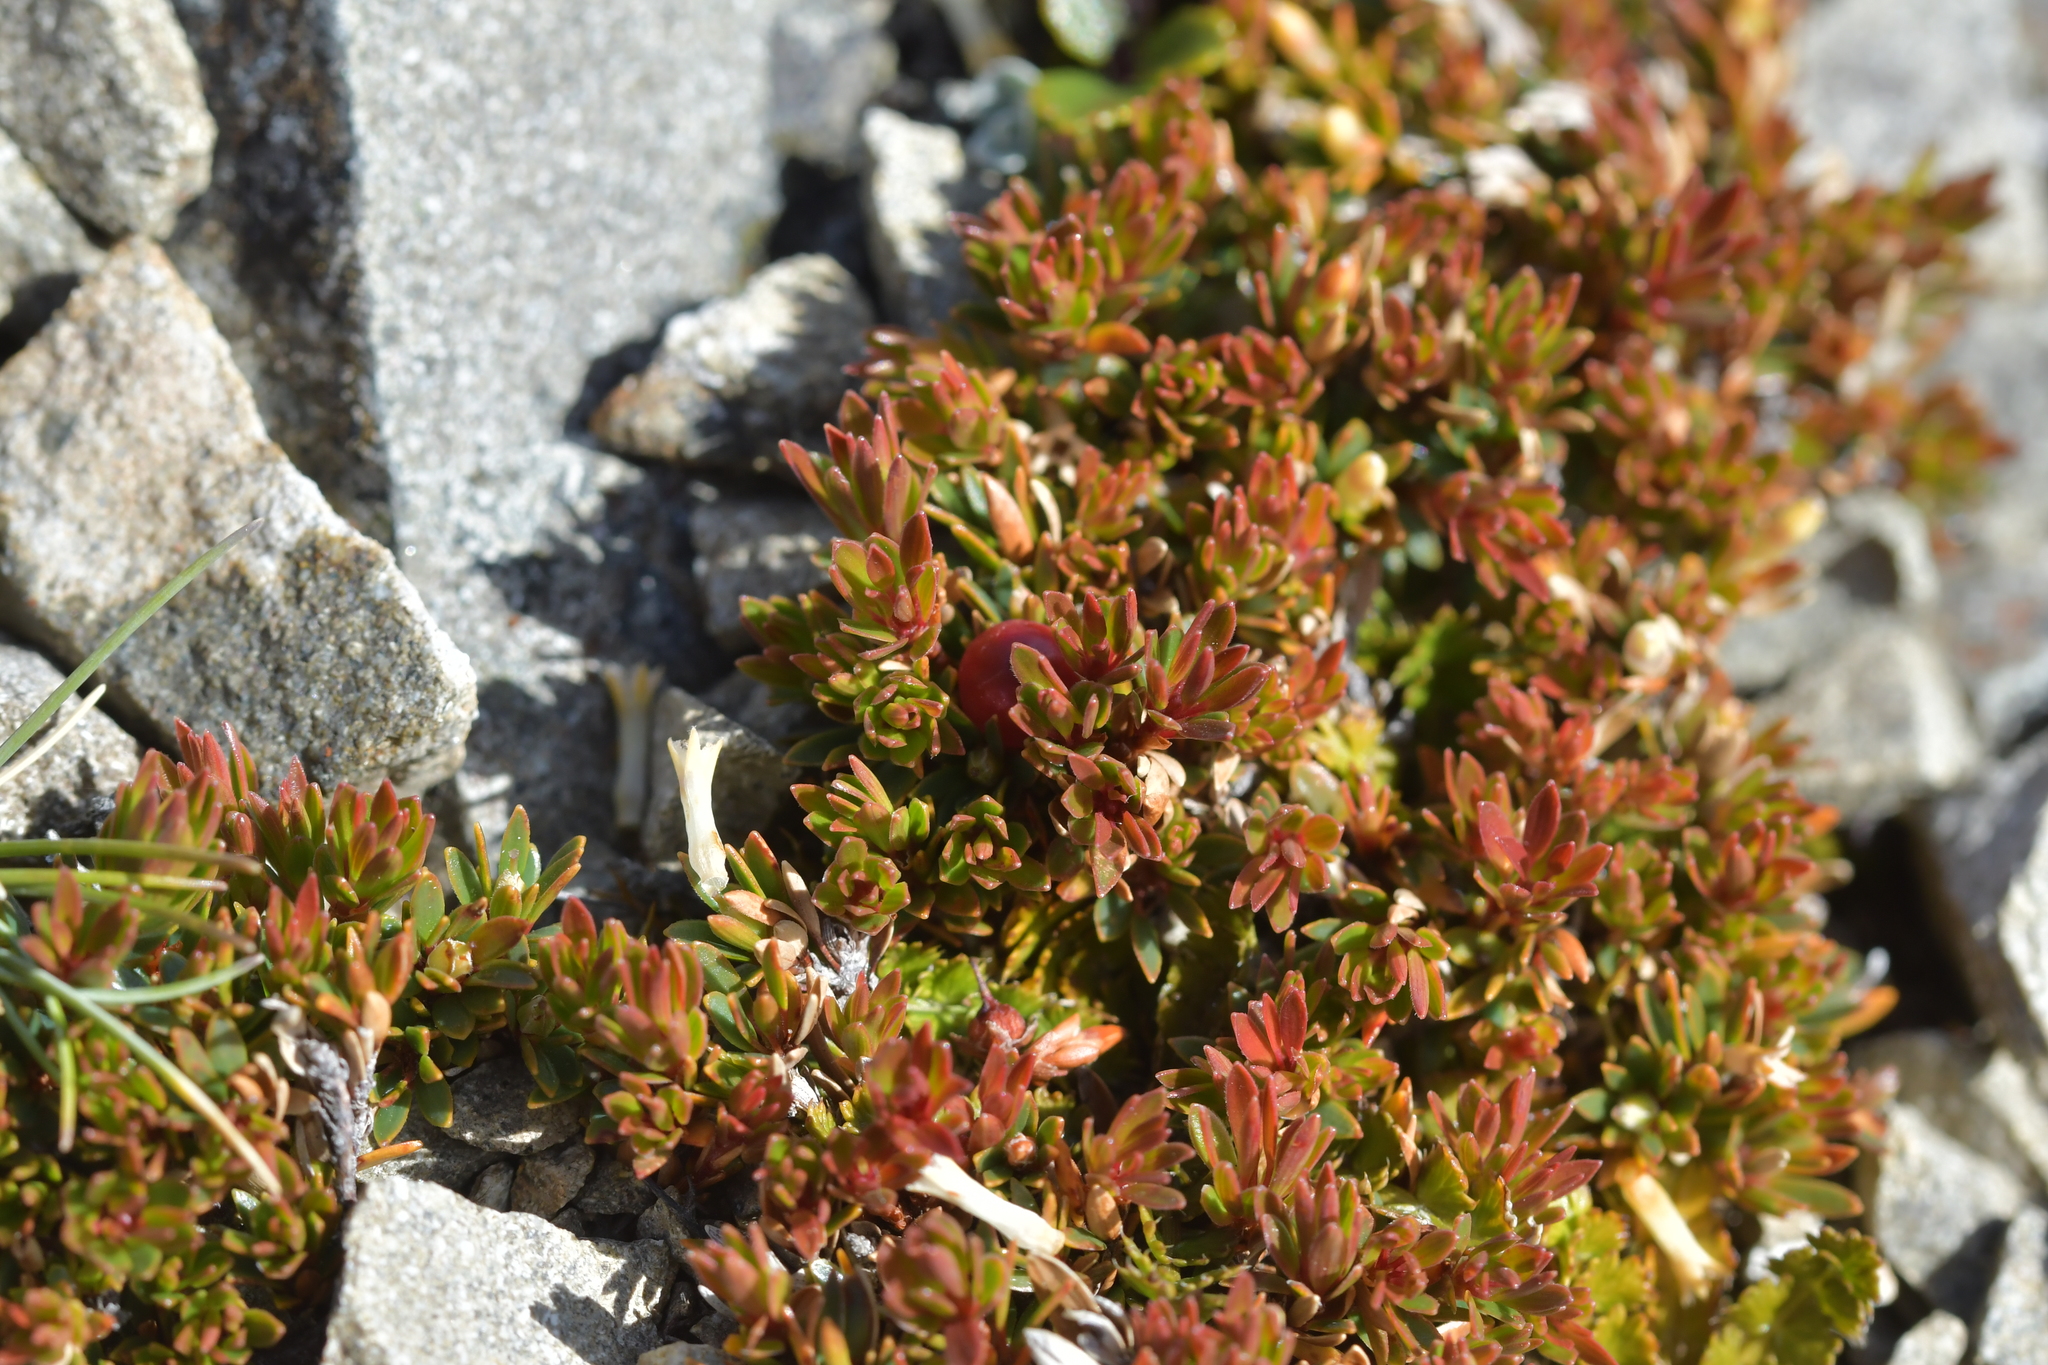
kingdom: Plantae
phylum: Tracheophyta
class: Magnoliopsida
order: Ericales
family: Ericaceae
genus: Pentachondra
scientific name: Pentachondra pumila
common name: Carpet-heath
